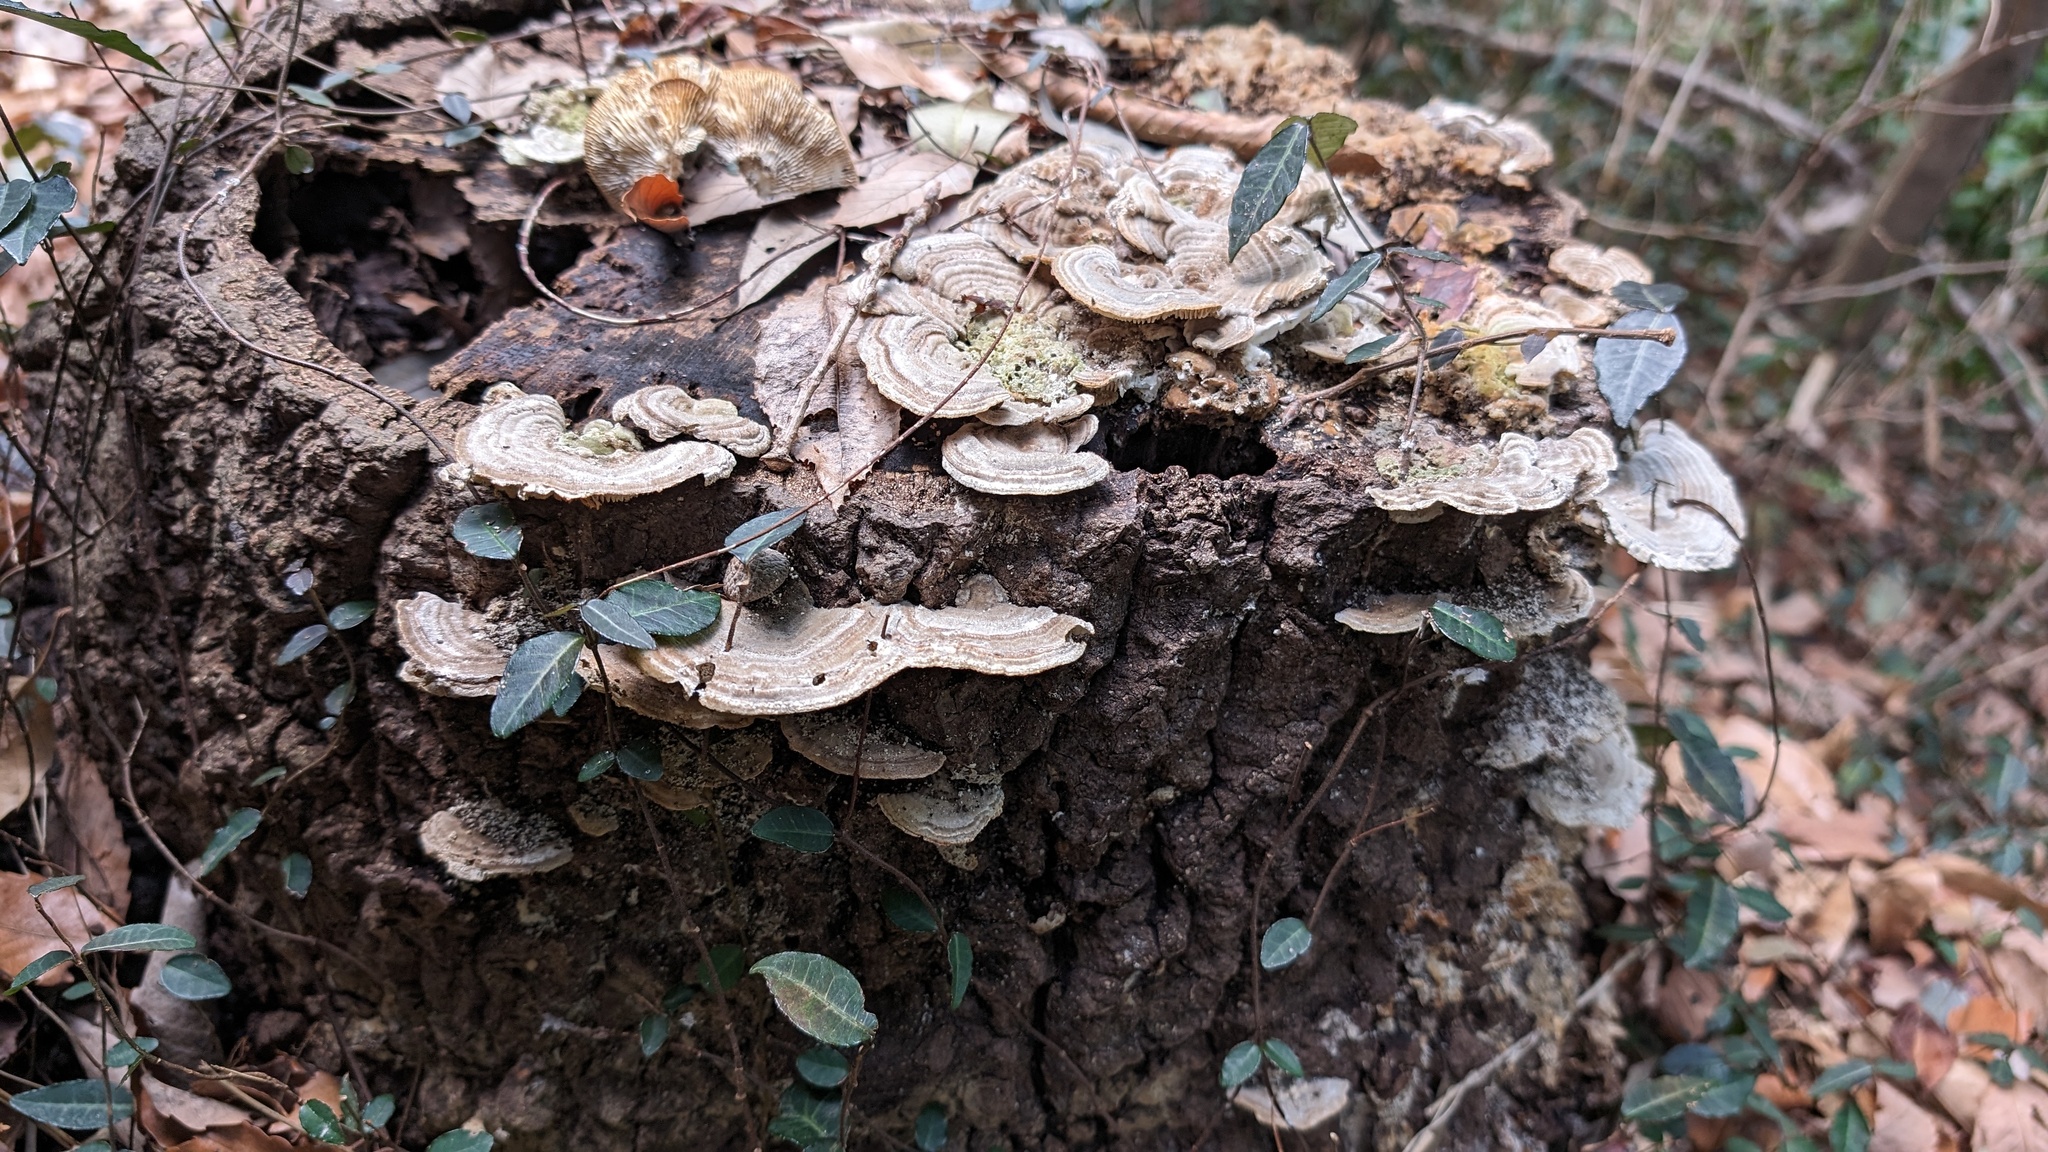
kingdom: Fungi
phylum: Basidiomycota
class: Agaricomycetes
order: Polyporales
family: Polyporaceae
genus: Lenzites
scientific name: Lenzites betulinus
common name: Birch mazegill
